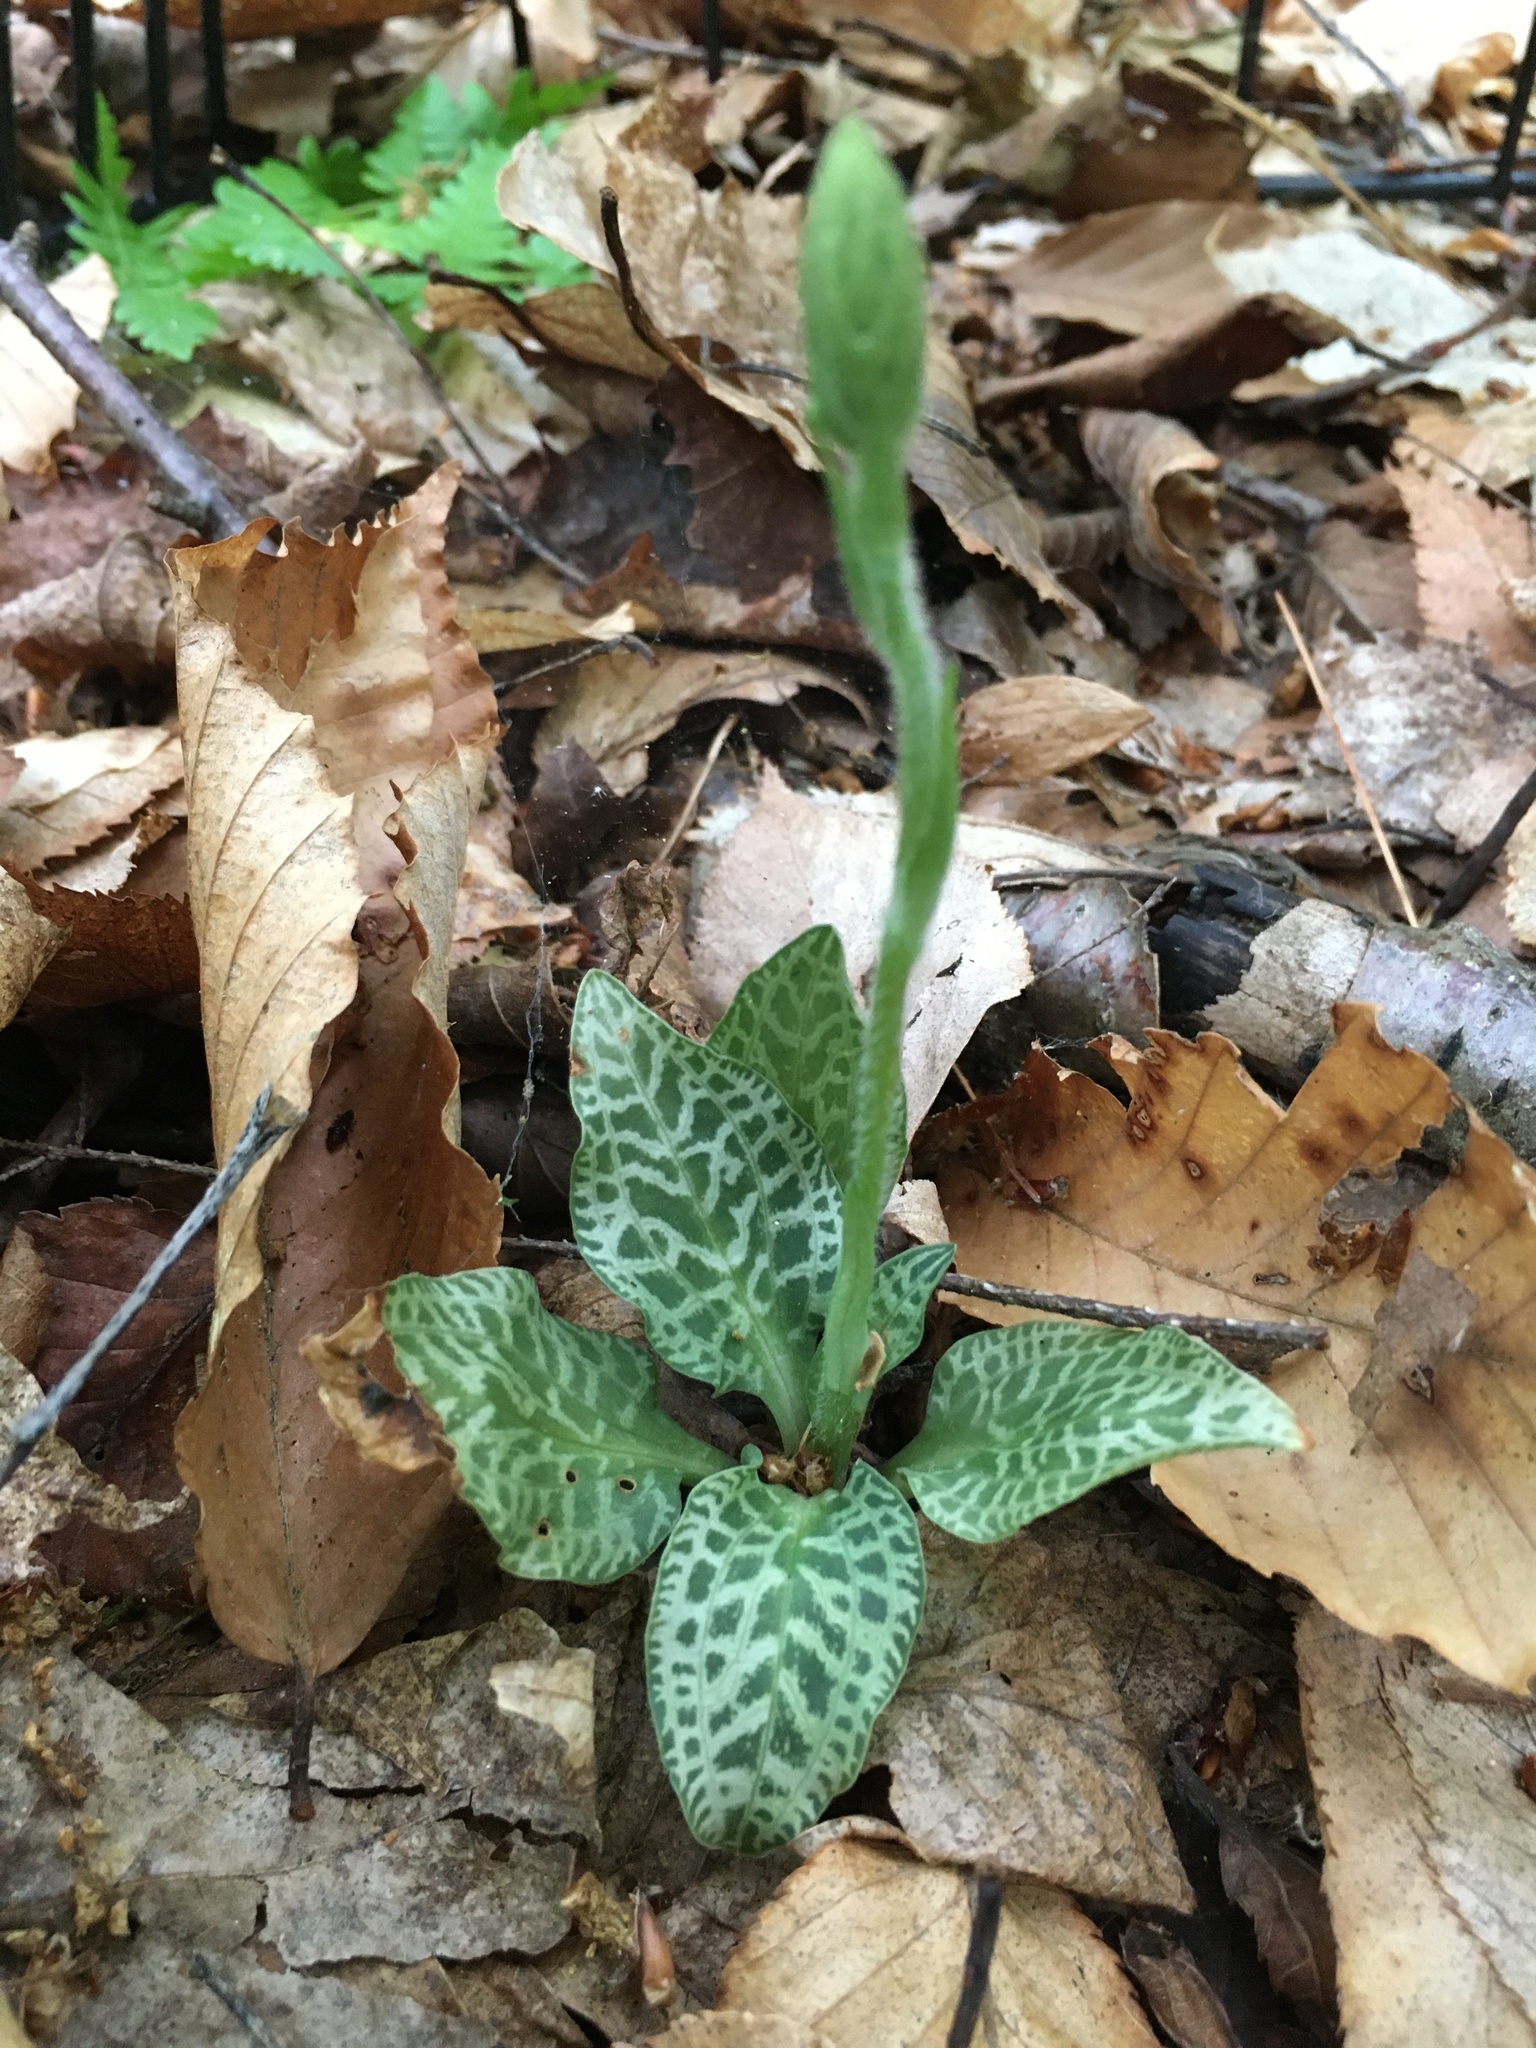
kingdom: Plantae
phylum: Tracheophyta
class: Liliopsida
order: Asparagales
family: Orchidaceae
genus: Goodyera
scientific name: Goodyera tesselata
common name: Checkered rattlesnake-plantain
